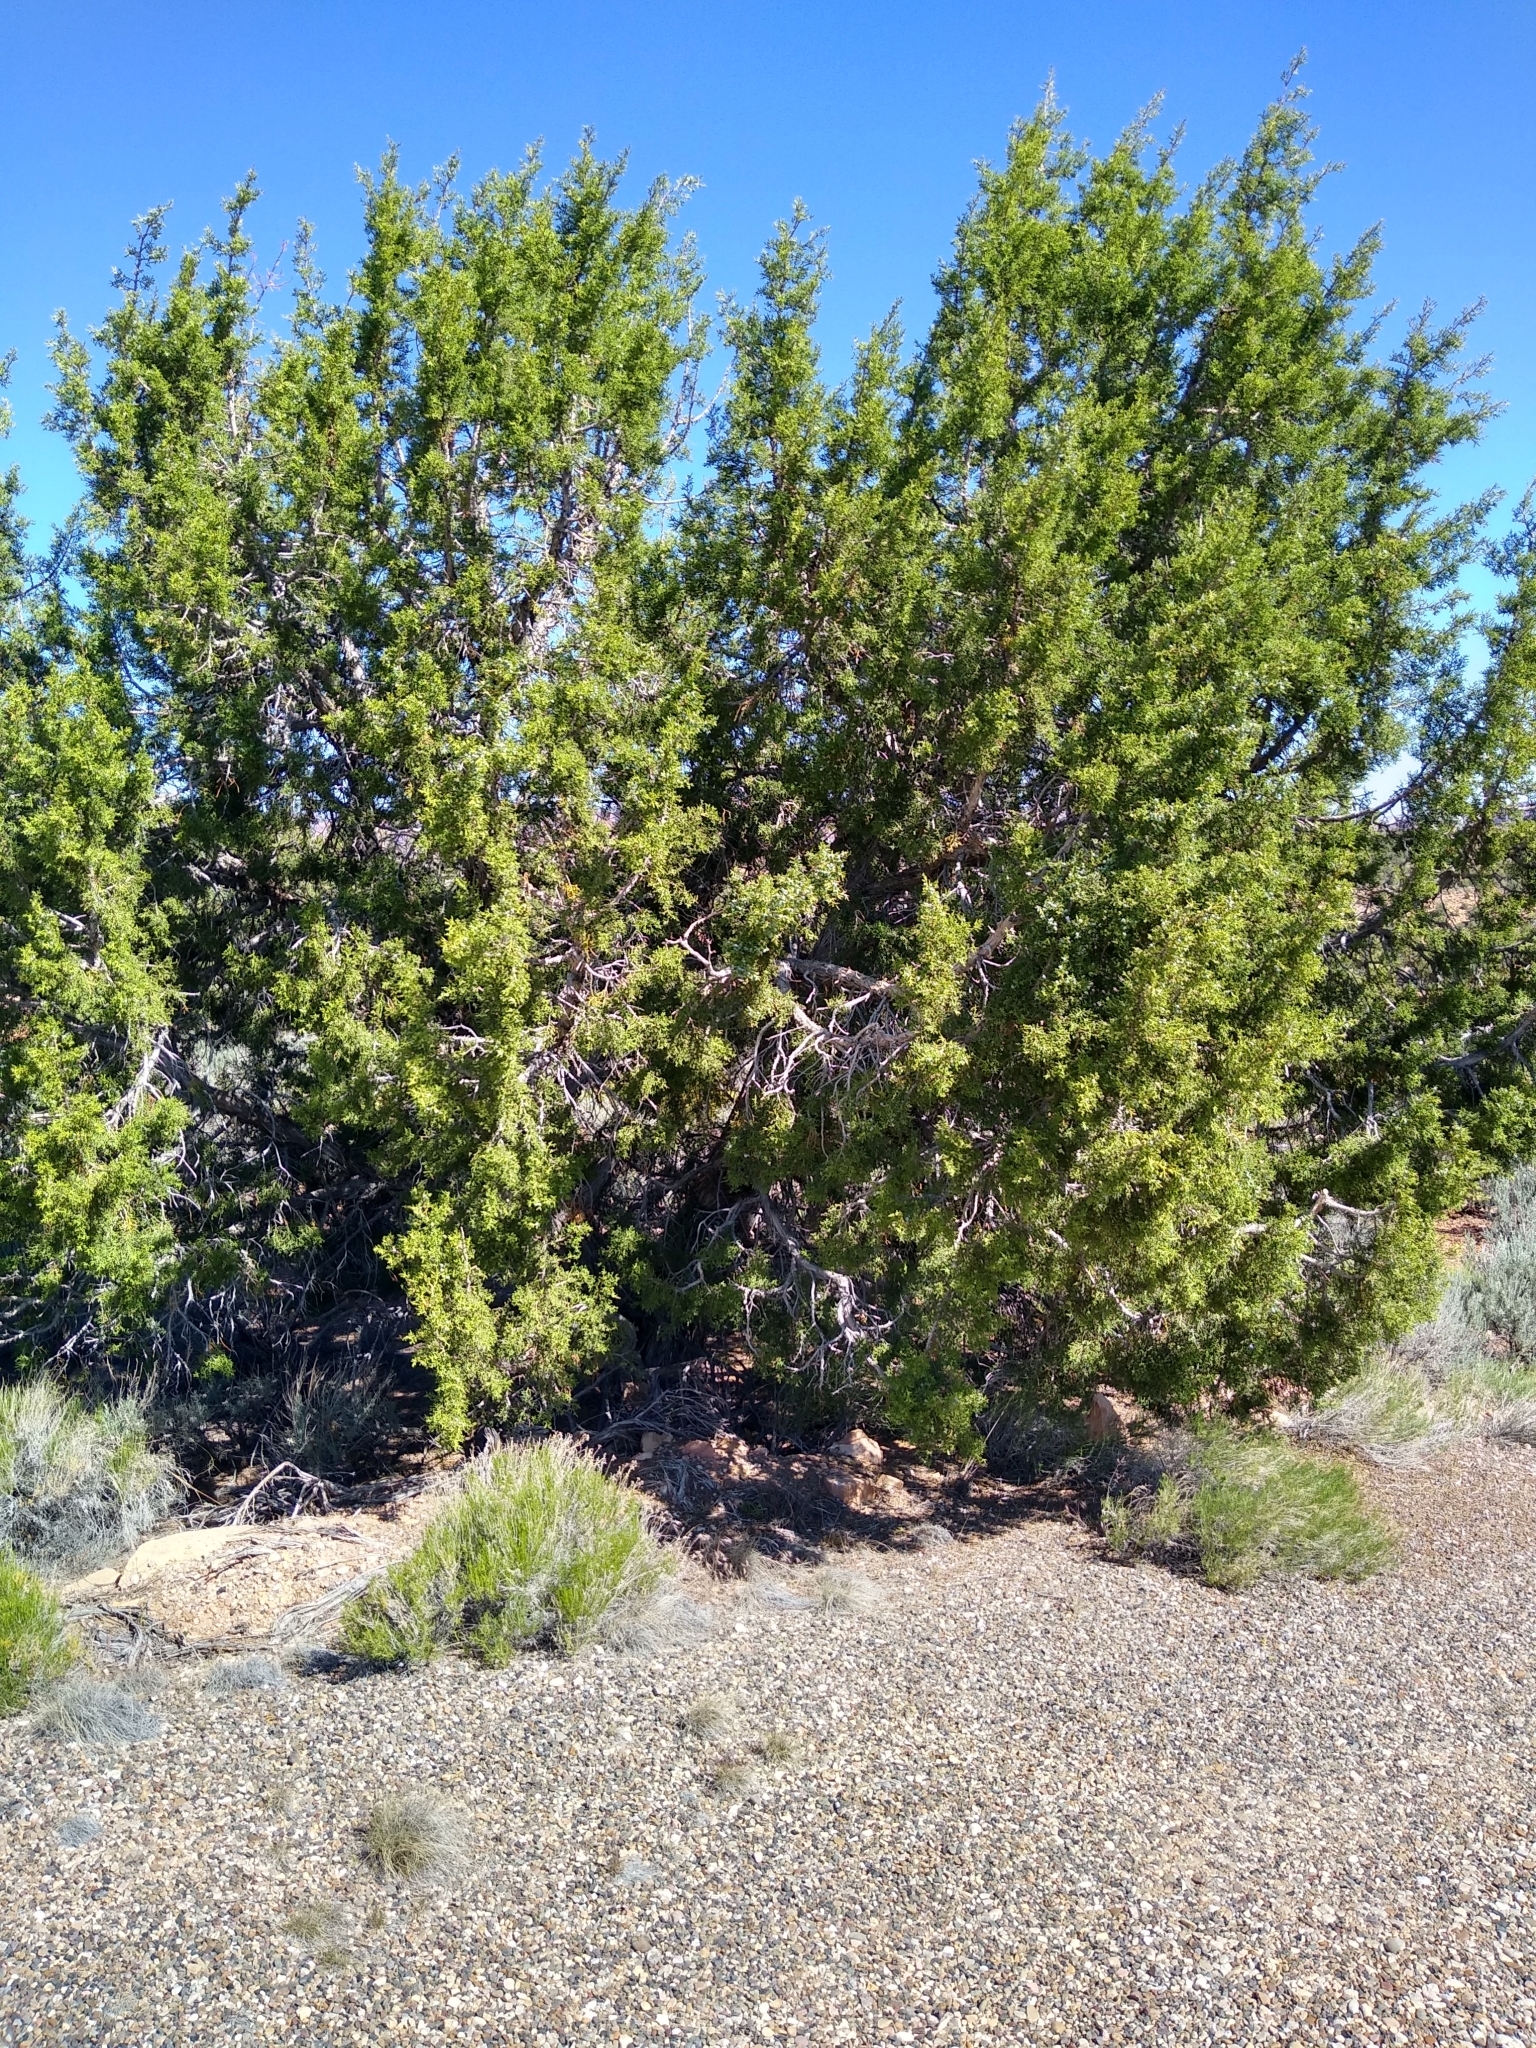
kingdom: Plantae
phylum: Tracheophyta
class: Pinopsida
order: Pinales
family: Cupressaceae
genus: Juniperus
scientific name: Juniperus osteosperma
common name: Utah juniper
